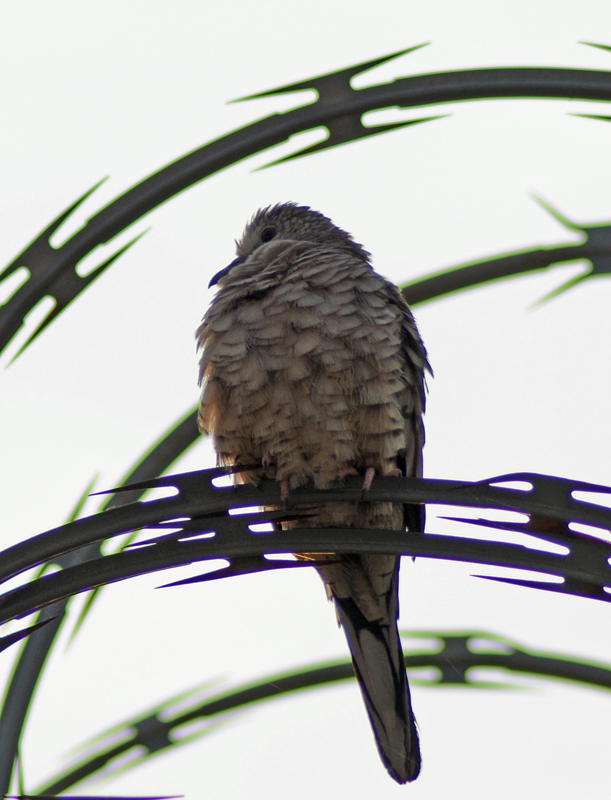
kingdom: Animalia
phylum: Chordata
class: Aves
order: Columbiformes
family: Columbidae
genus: Columbina
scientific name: Columbina inca
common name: Inca dove
